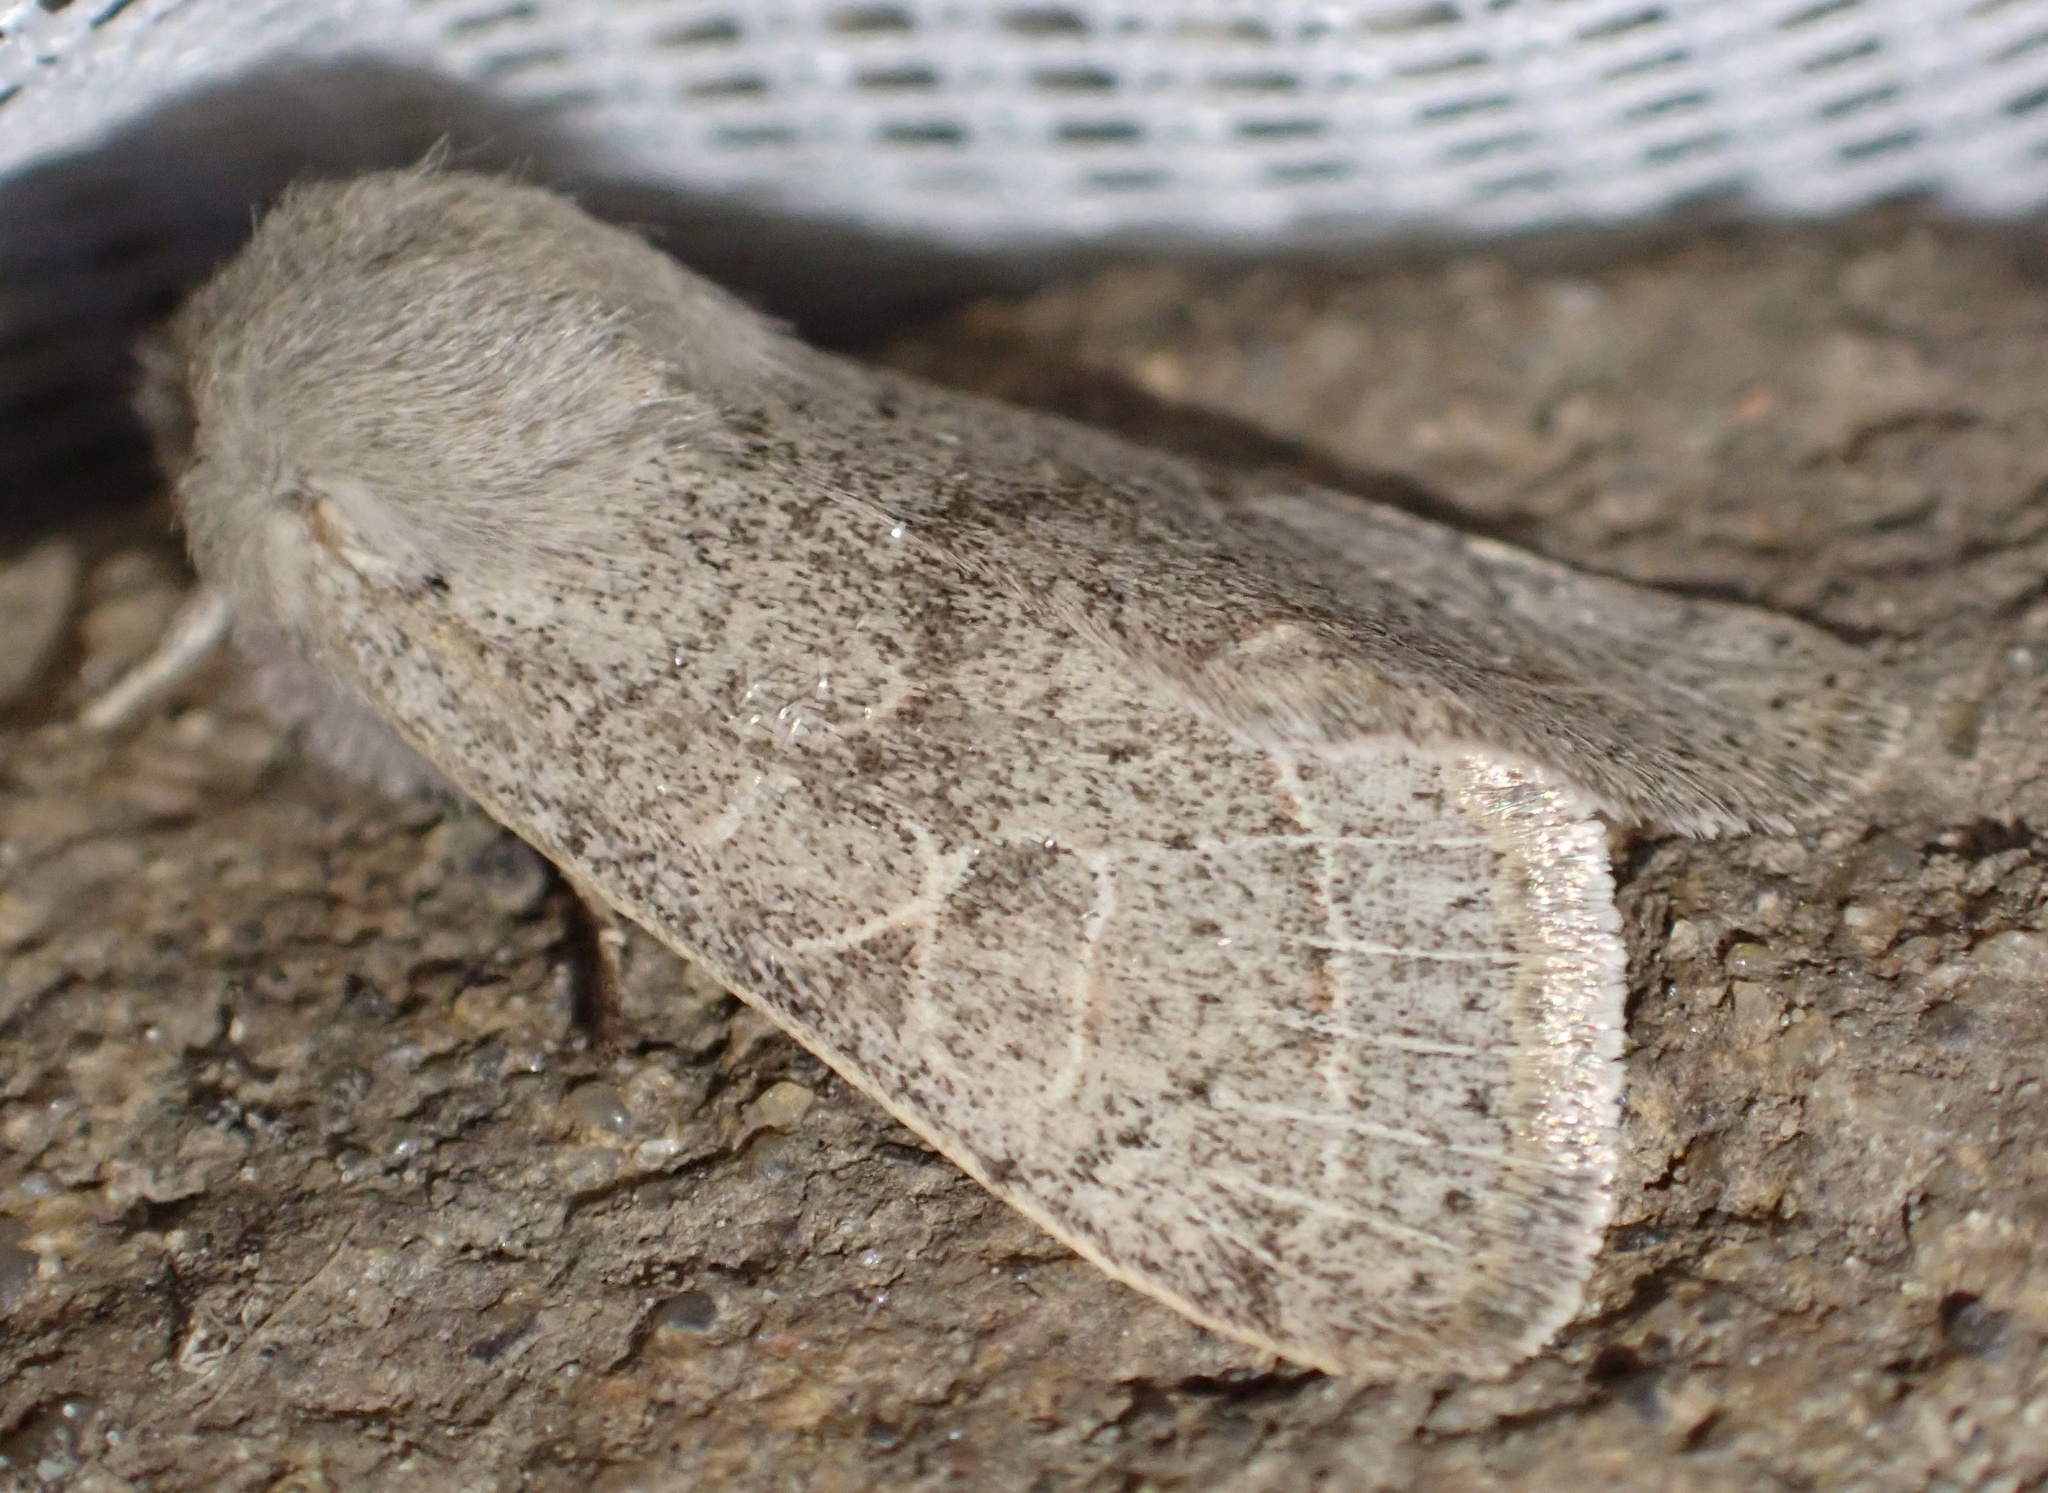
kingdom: Animalia
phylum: Arthropoda
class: Insecta
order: Lepidoptera
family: Noctuidae
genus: Orthosia
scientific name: Orthosia cerasi
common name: Common quaker
